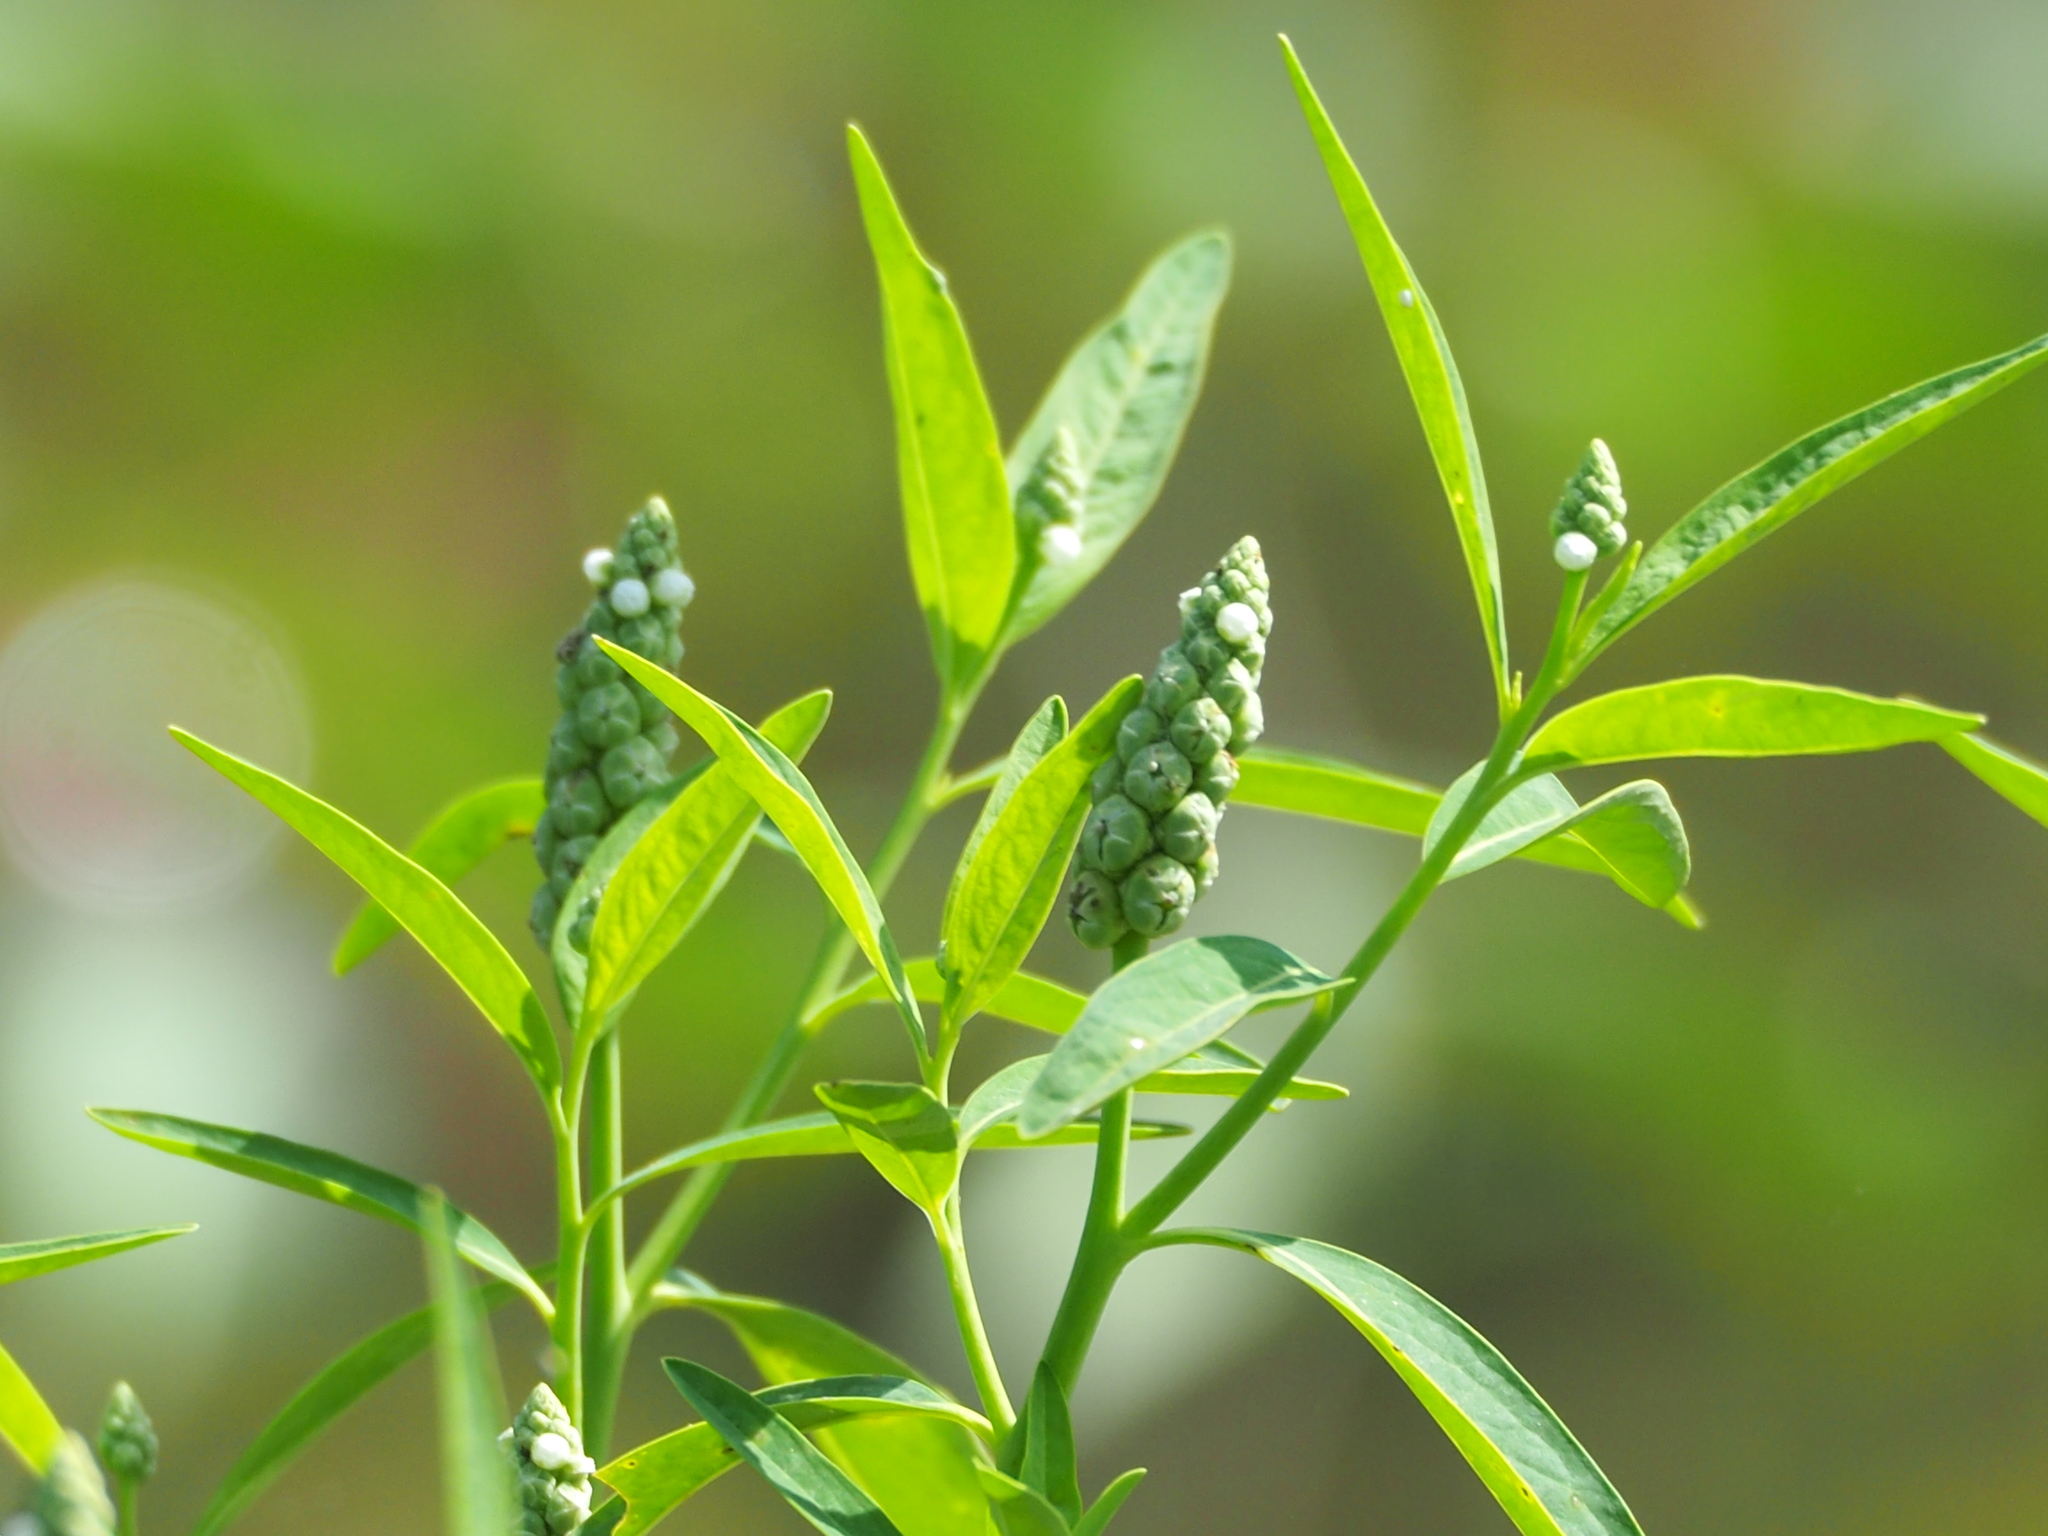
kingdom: Plantae
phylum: Tracheophyta
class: Magnoliopsida
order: Solanales
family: Sphenocleaceae
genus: Sphenoclea
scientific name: Sphenoclea zeylanica
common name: Chickenspike
